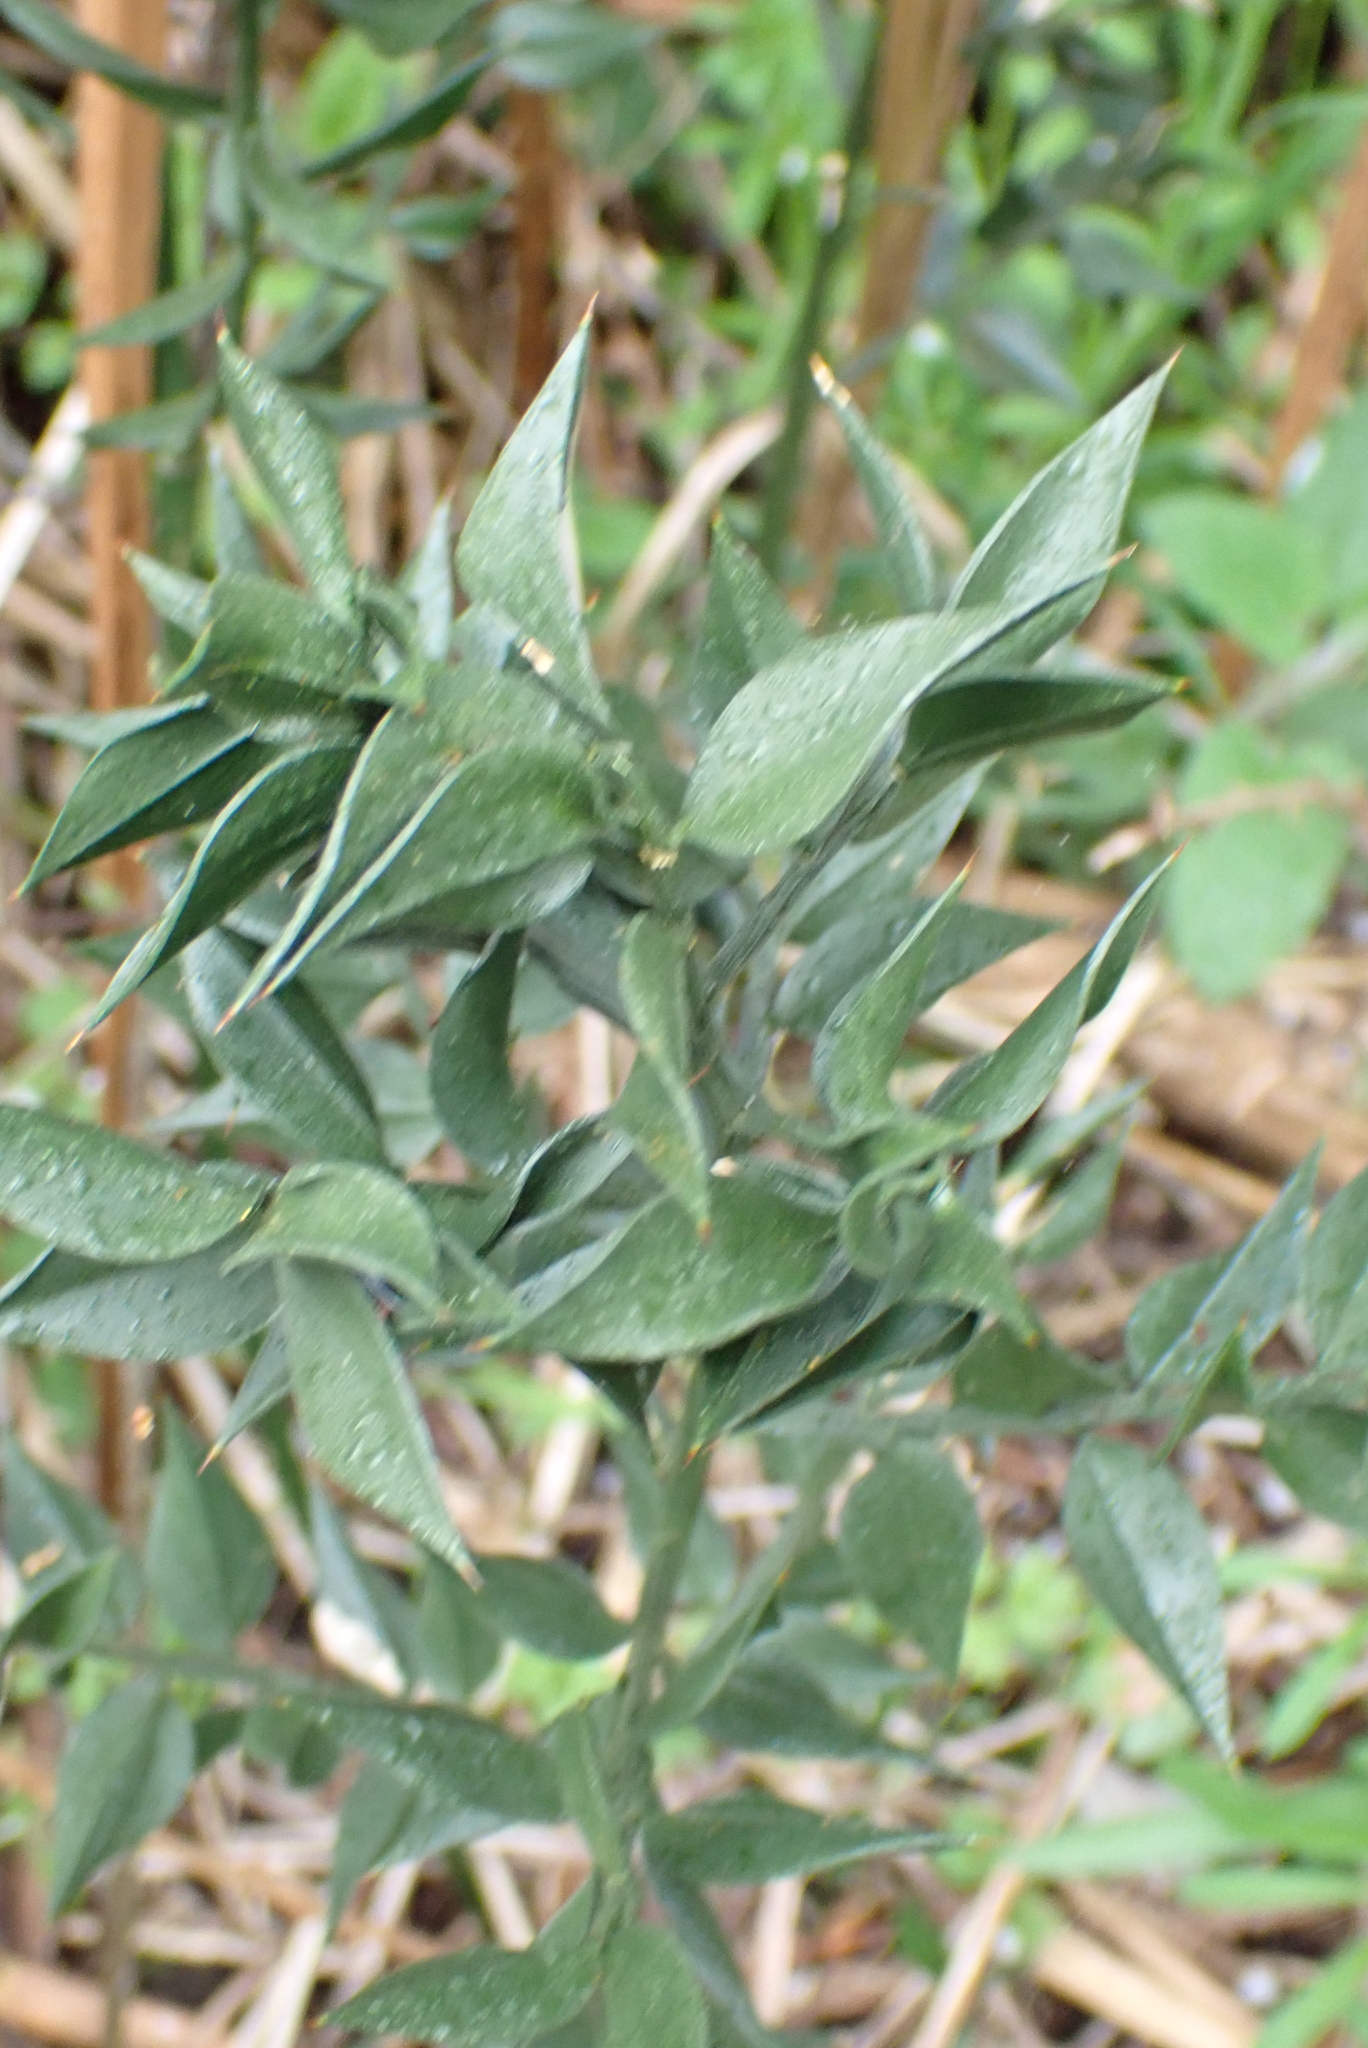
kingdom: Plantae
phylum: Tracheophyta
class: Liliopsida
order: Asparagales
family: Asparagaceae
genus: Ruscus
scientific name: Ruscus aculeatus
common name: Butcher's-broom
